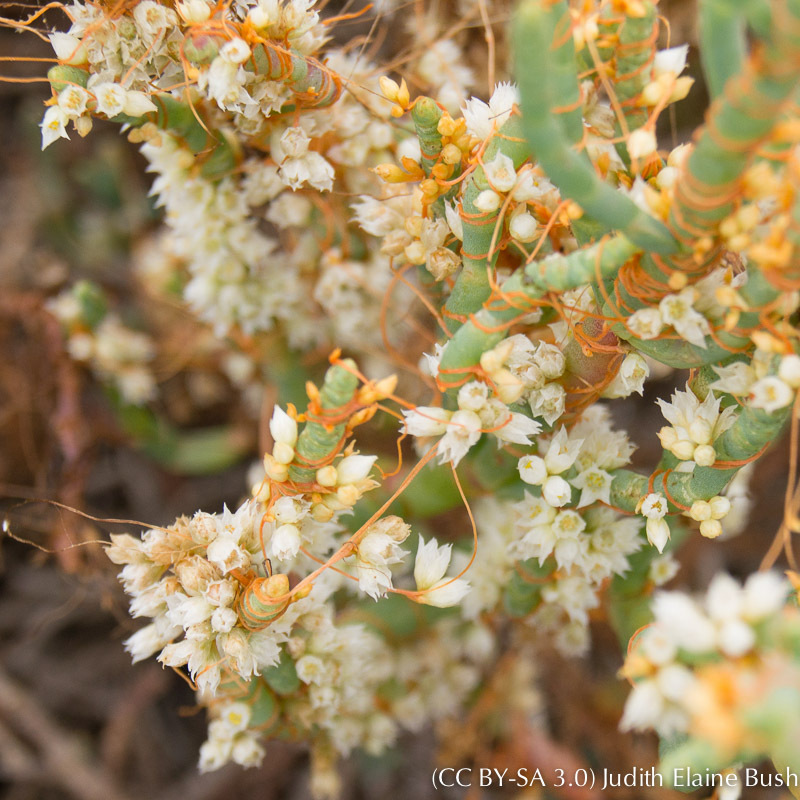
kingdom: Plantae
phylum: Tracheophyta
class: Magnoliopsida
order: Solanales
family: Convolvulaceae
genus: Cuscuta
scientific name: Cuscuta pacifica
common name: Large saltmarsh dodder
